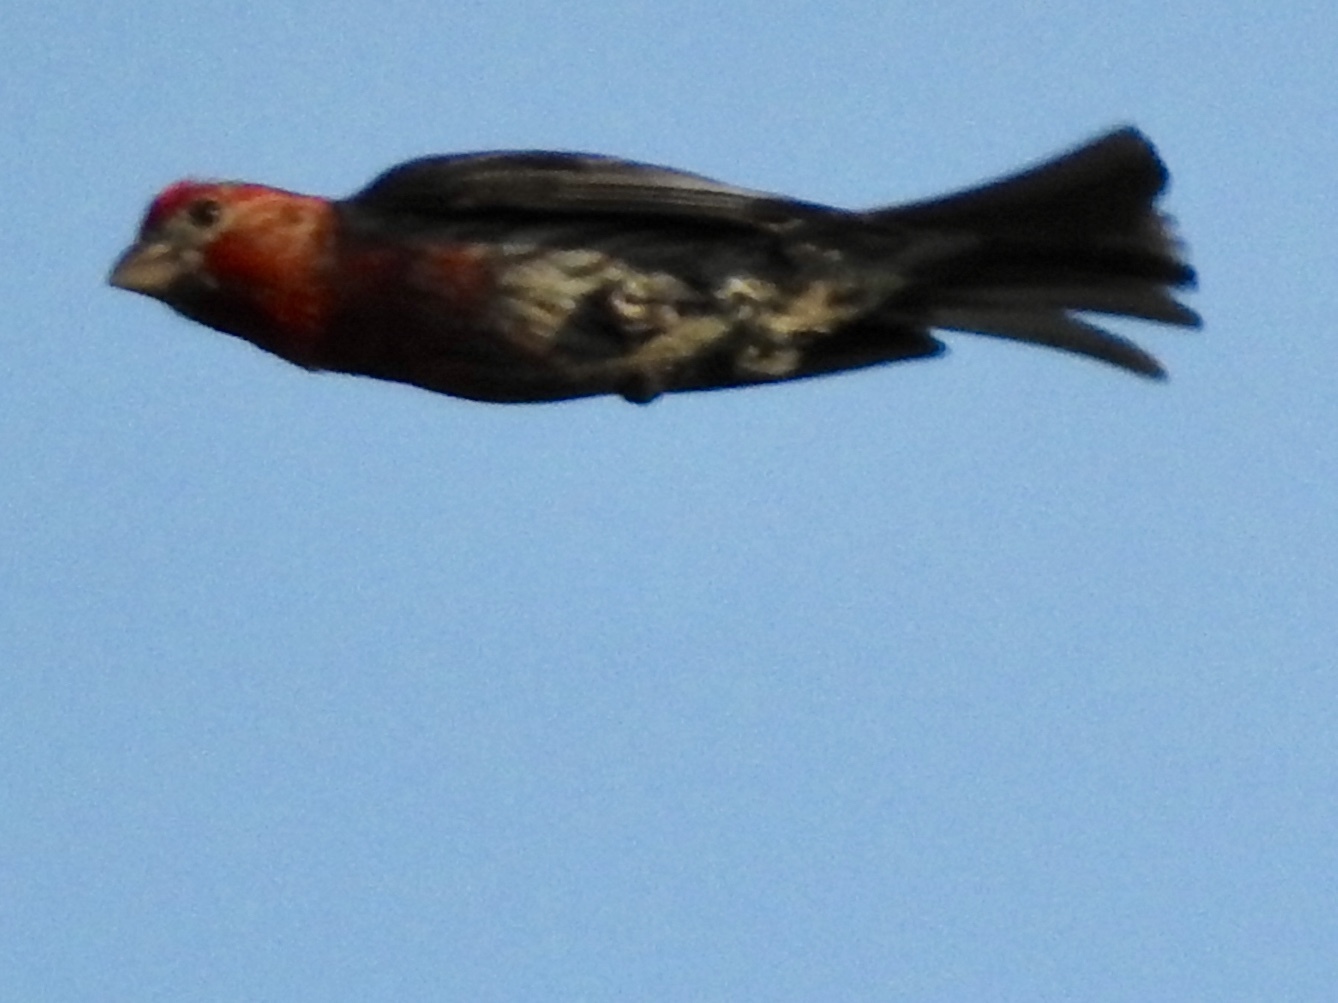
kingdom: Animalia
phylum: Chordata
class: Aves
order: Passeriformes
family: Fringillidae
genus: Haemorhous
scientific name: Haemorhous mexicanus
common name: House finch
